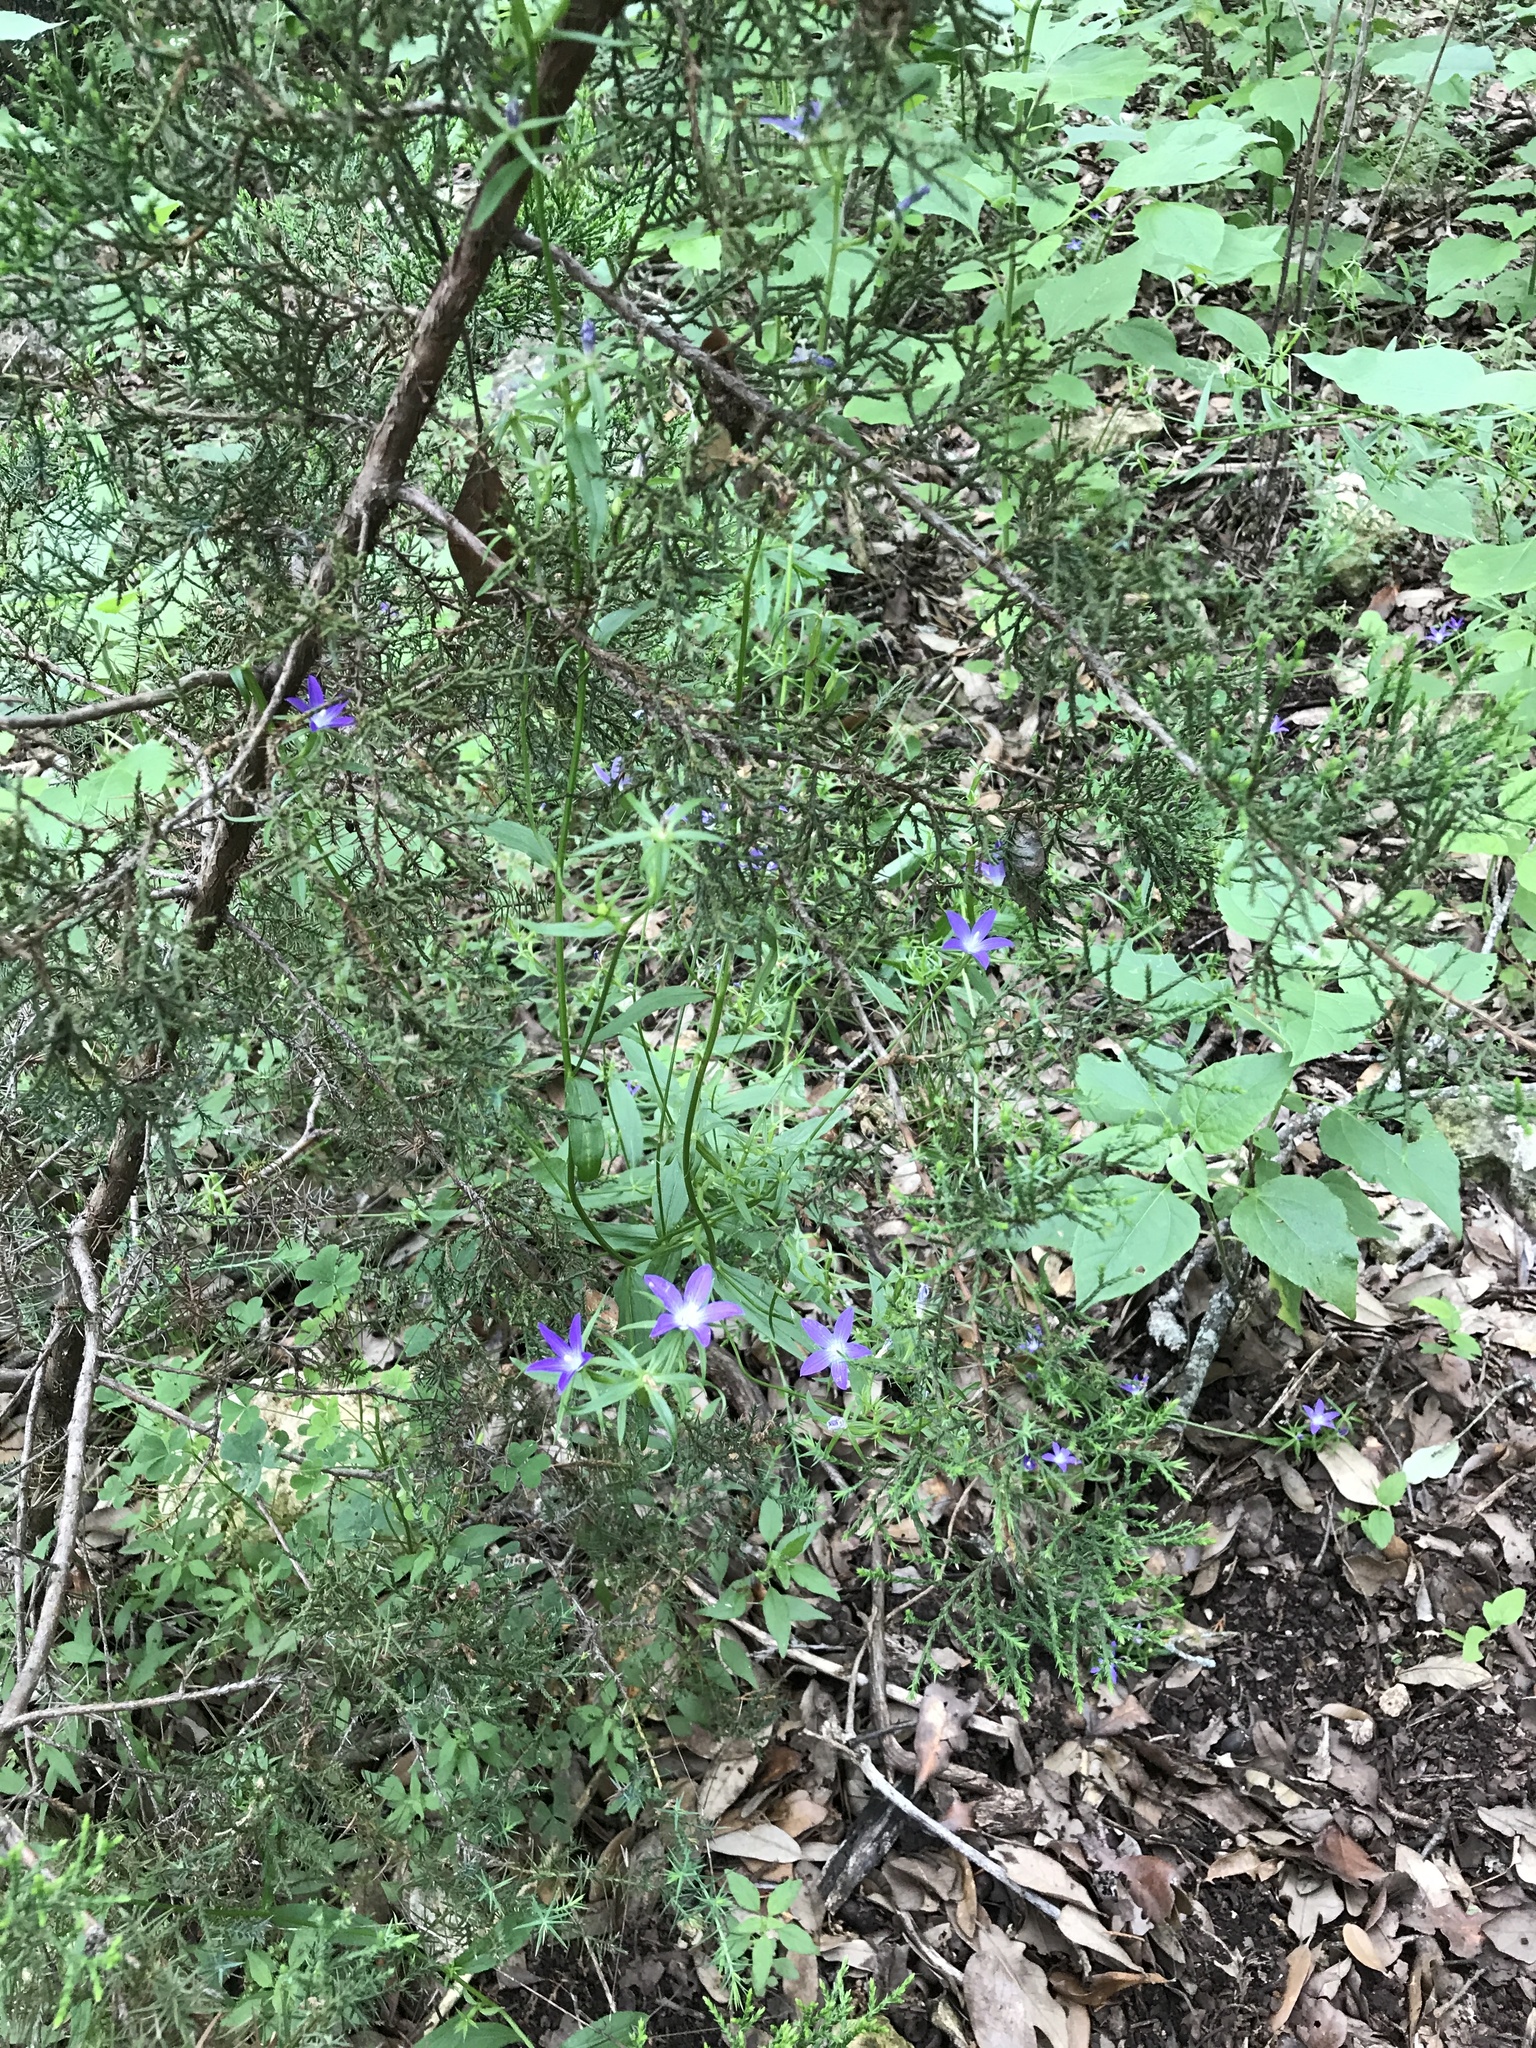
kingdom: Plantae
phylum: Tracheophyta
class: Magnoliopsida
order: Asterales
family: Campanulaceae
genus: Triodanis
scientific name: Triodanis coloradoensis
